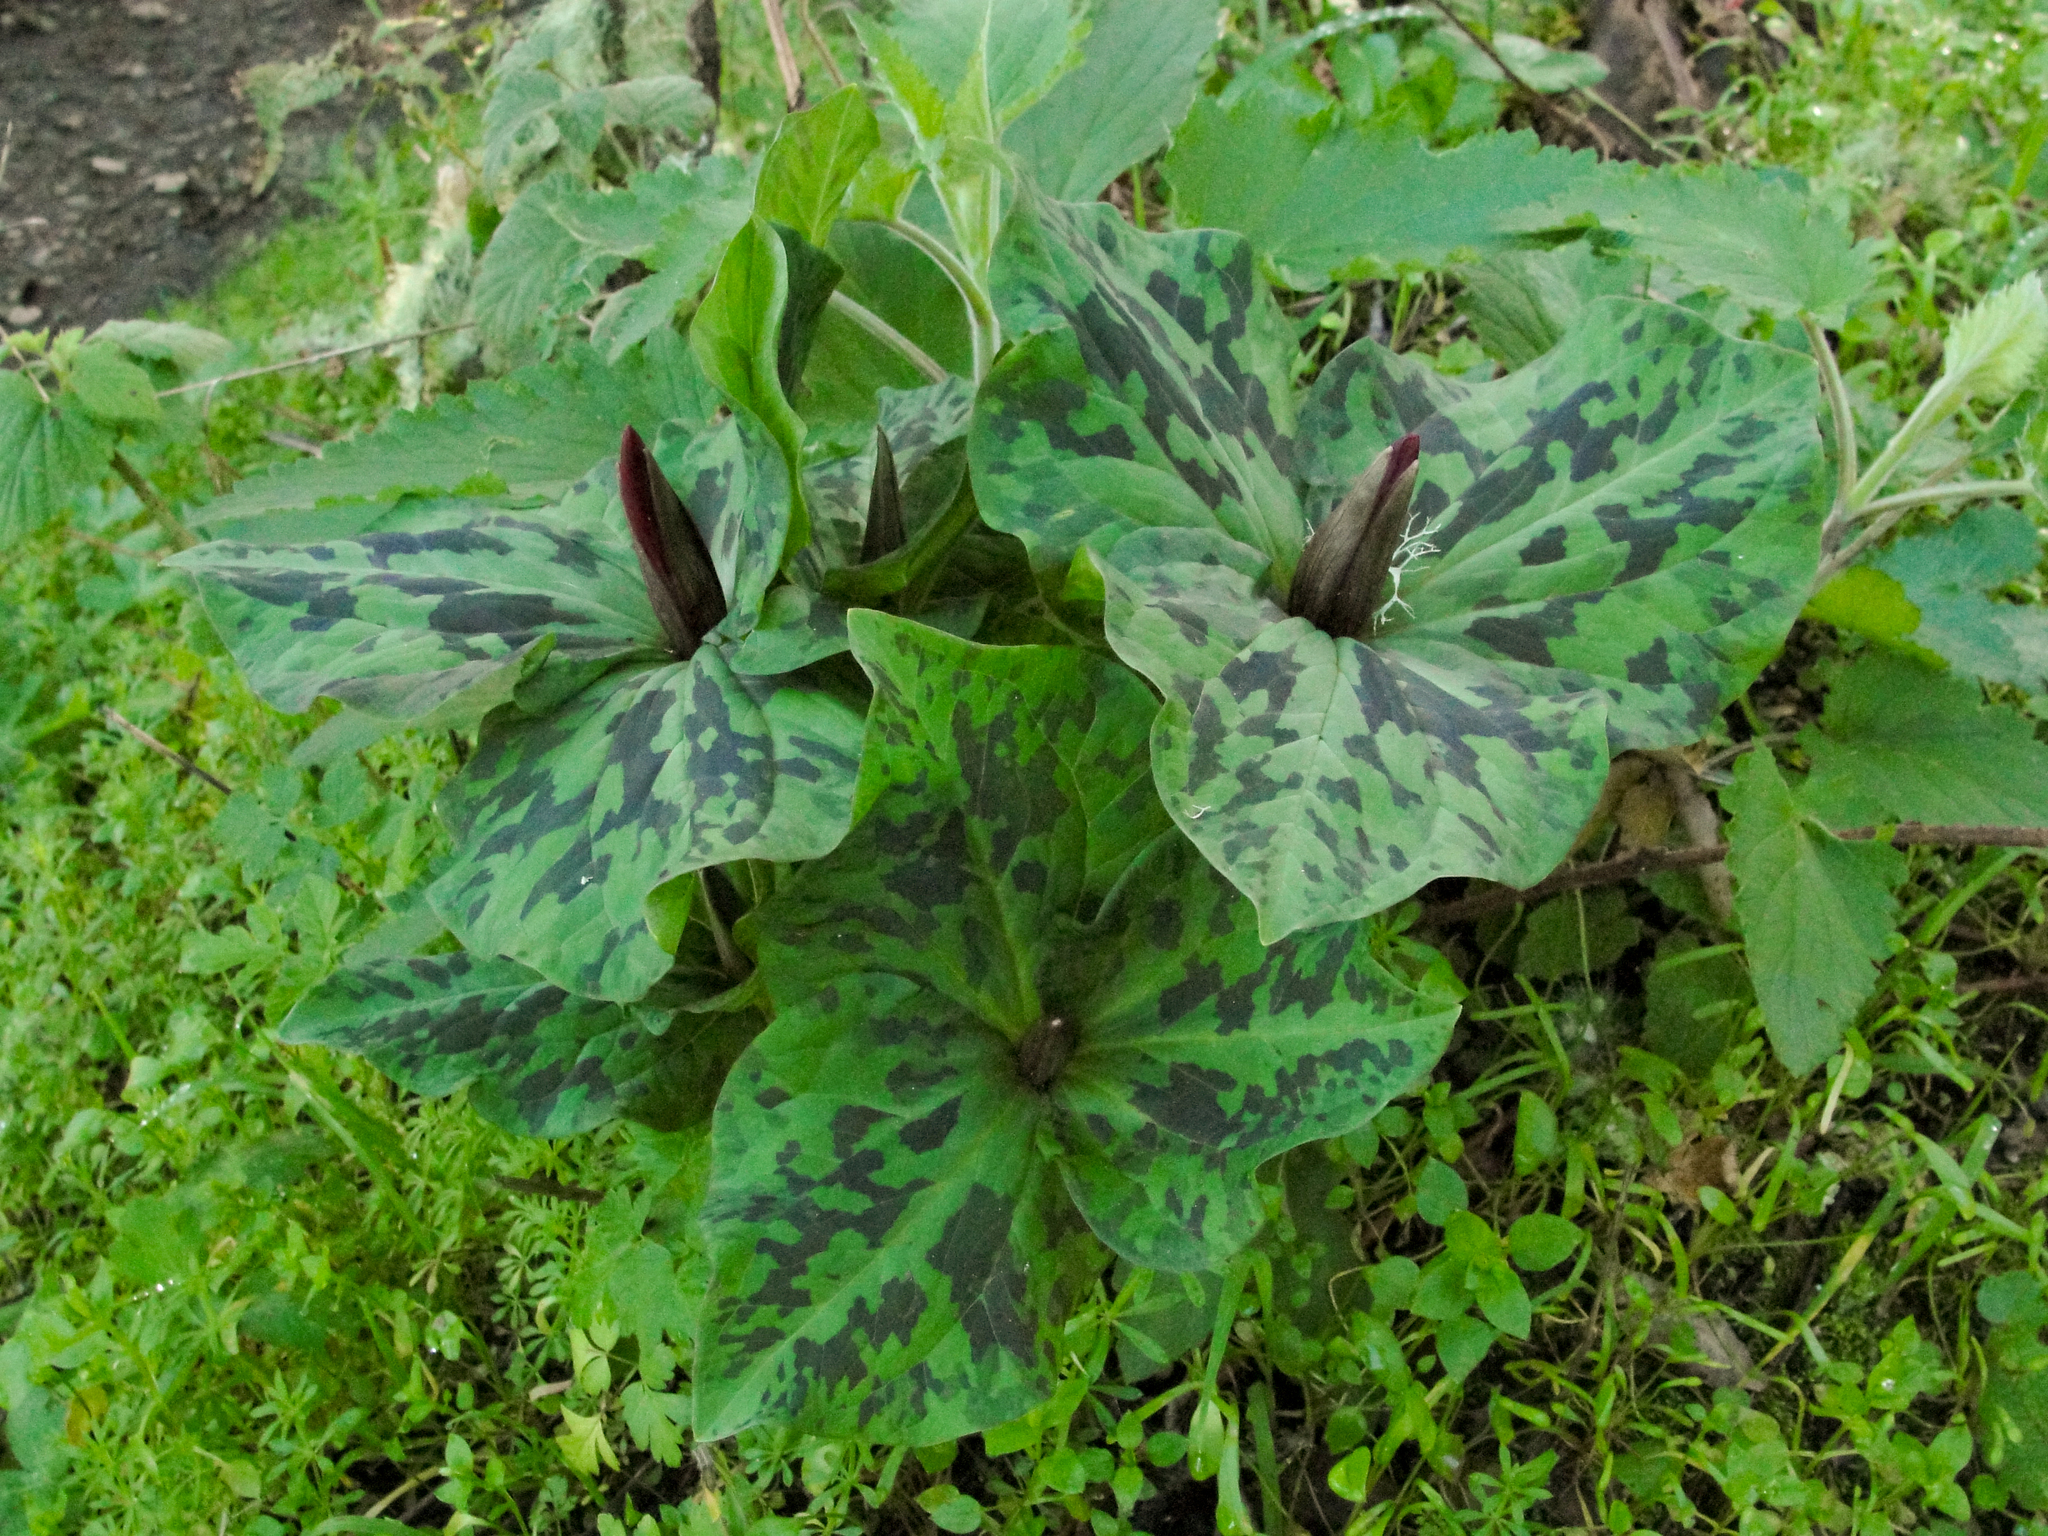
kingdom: Plantae
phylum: Tracheophyta
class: Liliopsida
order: Liliales
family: Melanthiaceae
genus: Trillium
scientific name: Trillium chloropetalum
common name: Giant trillium
